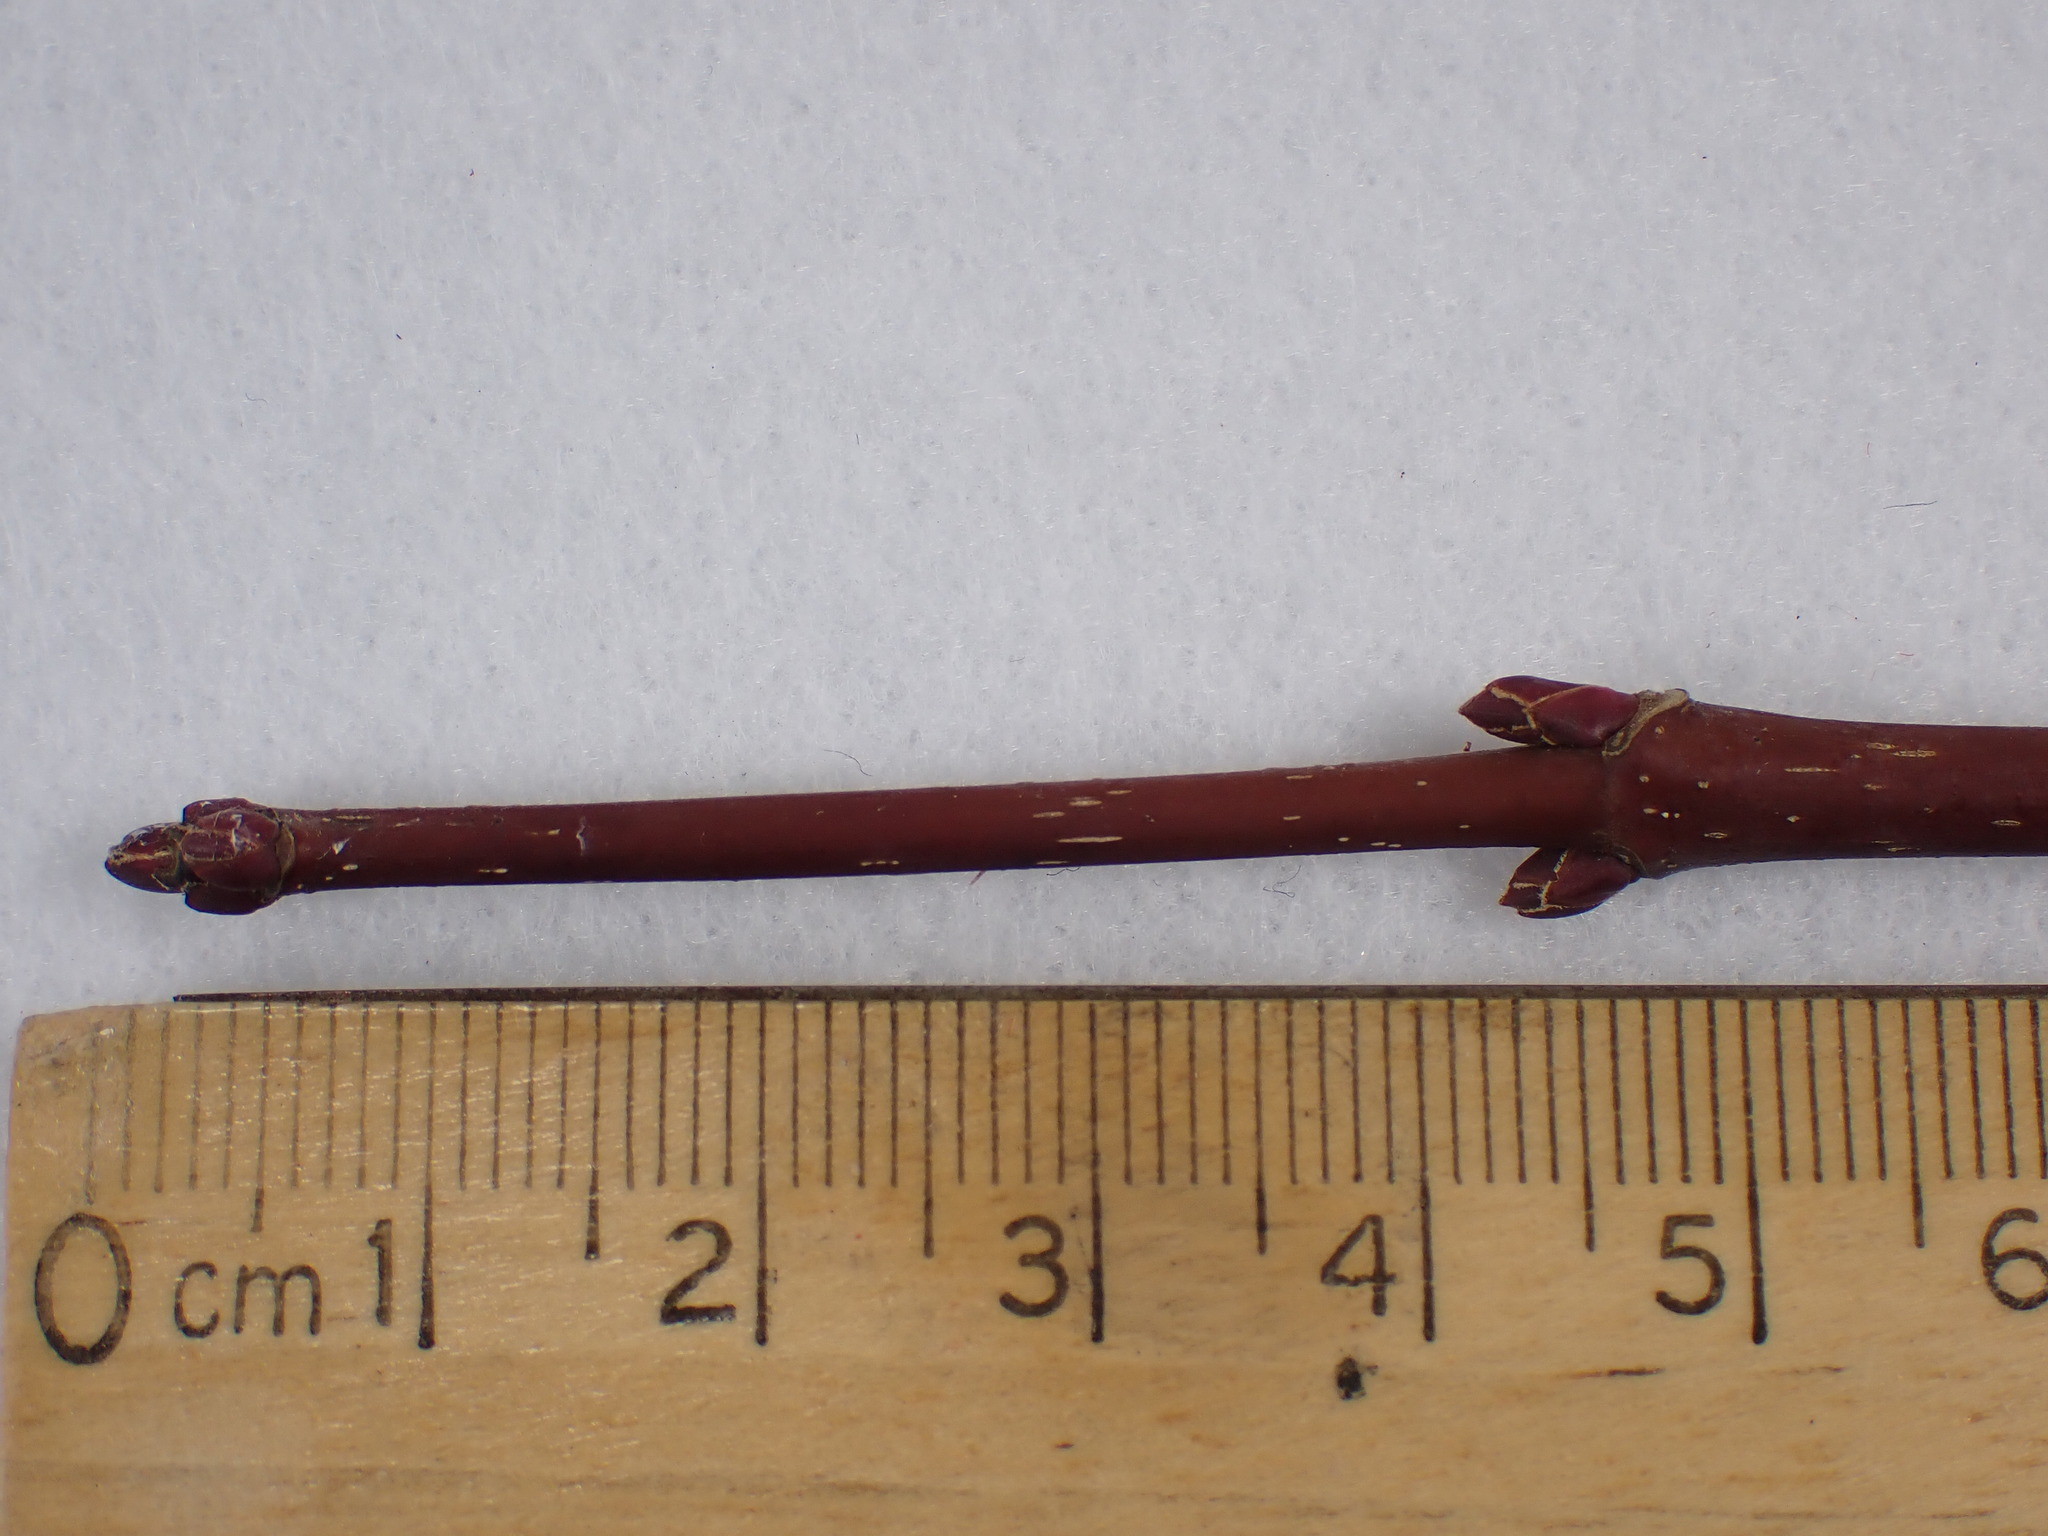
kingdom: Plantae
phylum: Tracheophyta
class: Magnoliopsida
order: Sapindales
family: Sapindaceae
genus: Acer
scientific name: Acer rubrum
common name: Red maple
